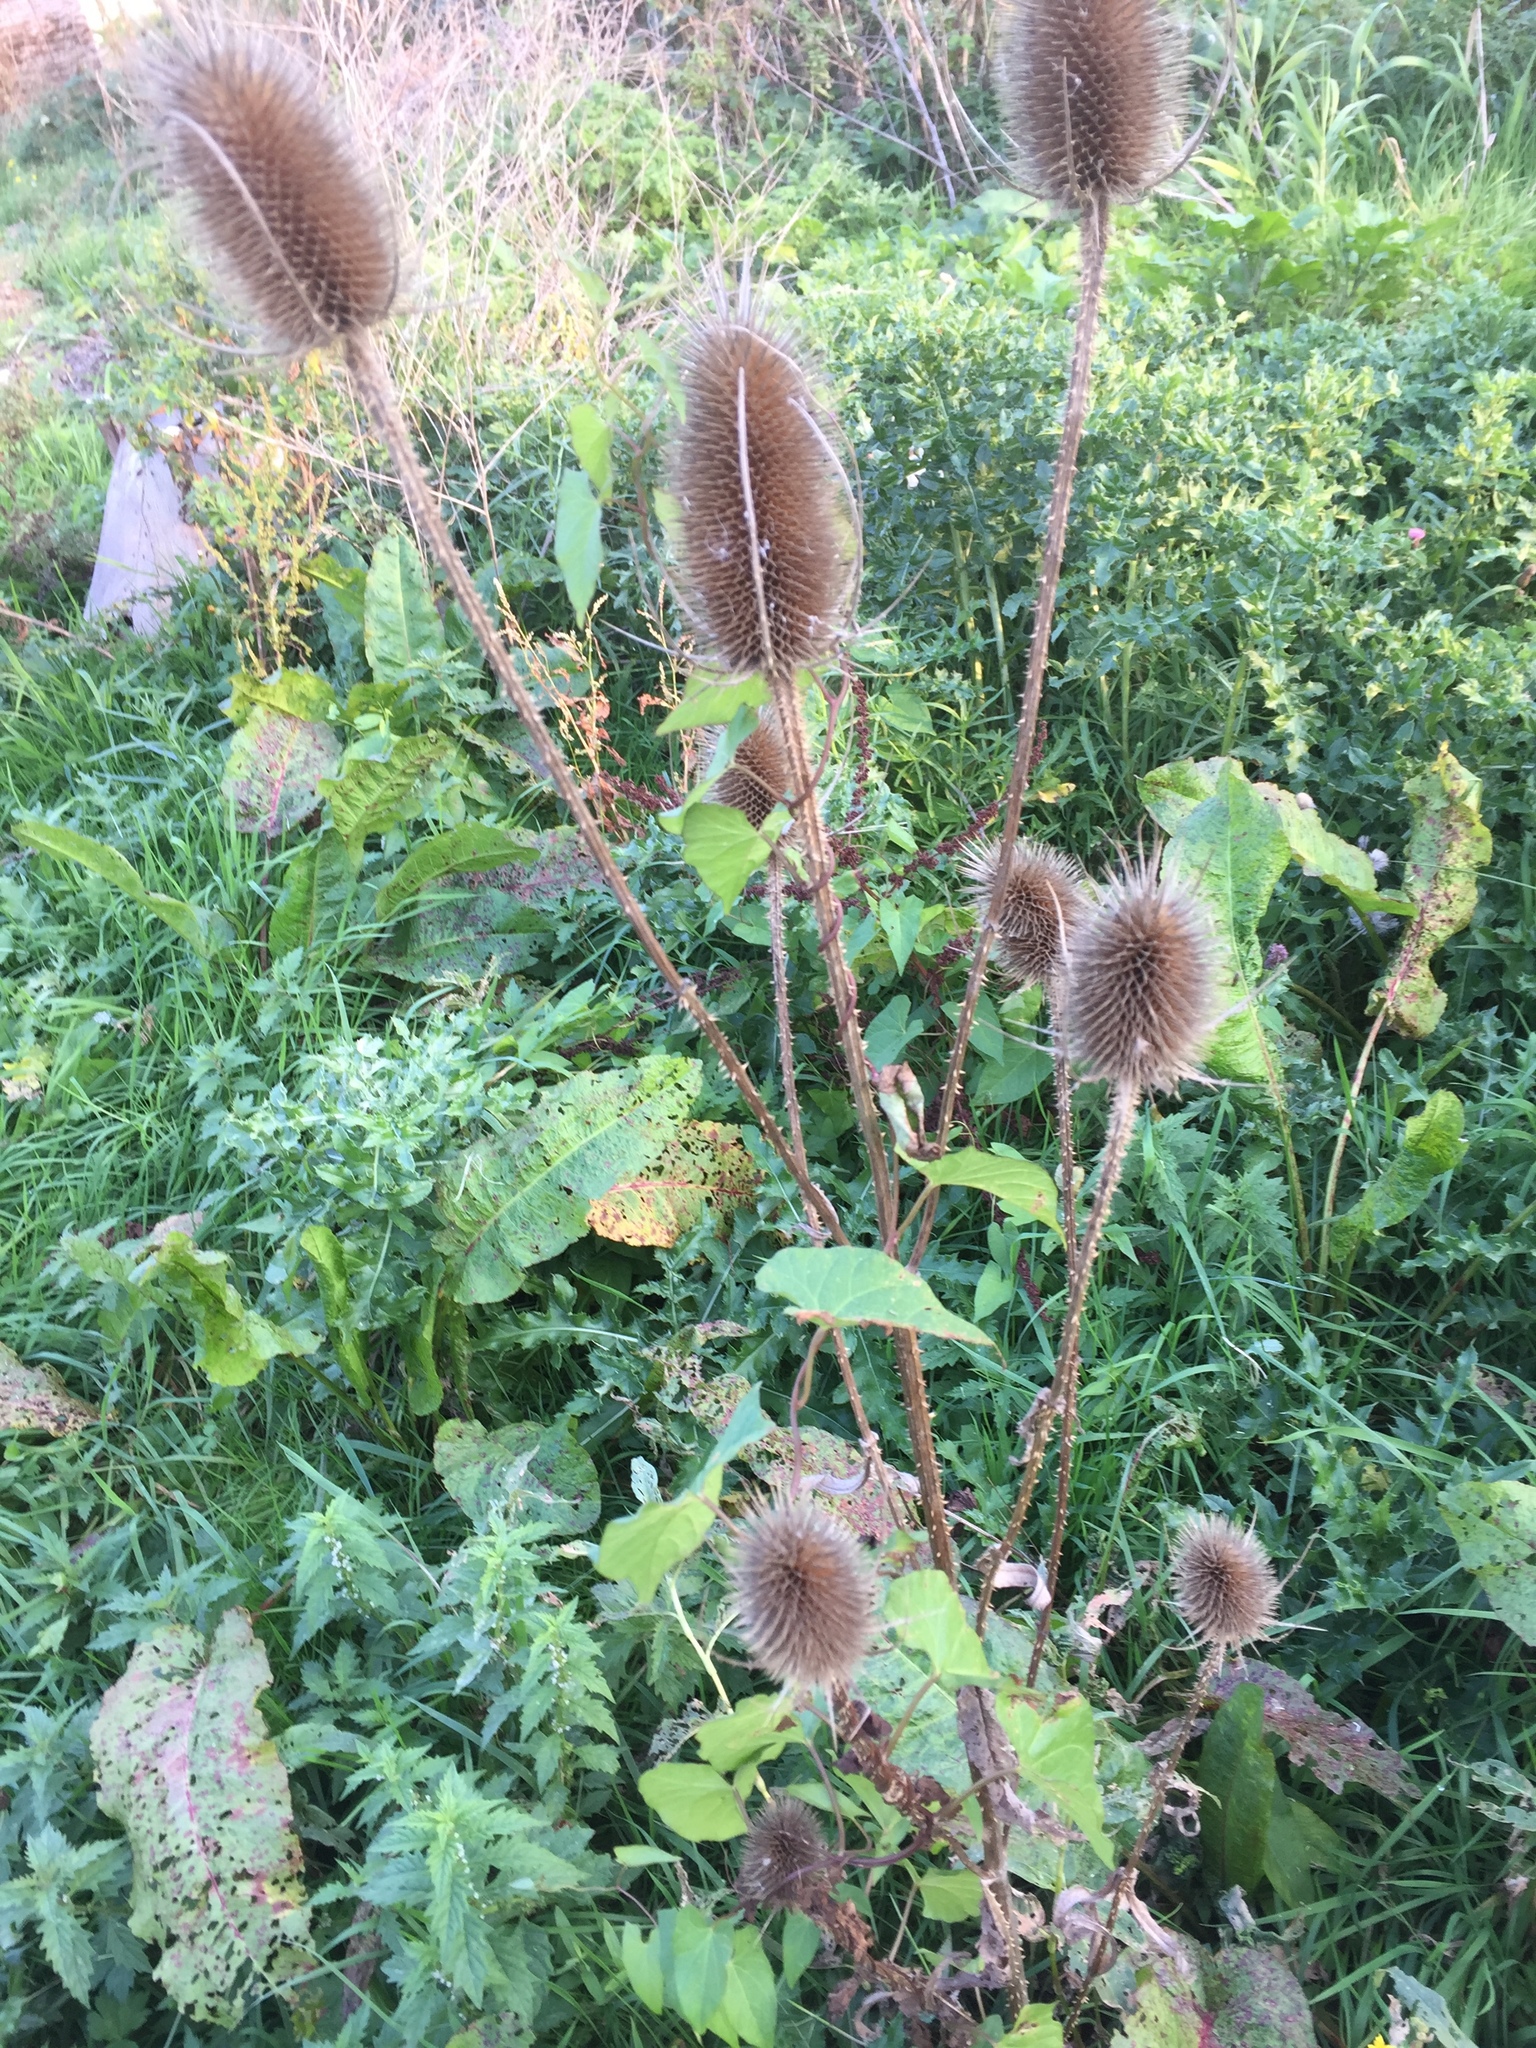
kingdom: Plantae
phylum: Tracheophyta
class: Magnoliopsida
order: Dipsacales
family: Caprifoliaceae
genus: Dipsacus
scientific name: Dipsacus fullonum
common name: Teasel
